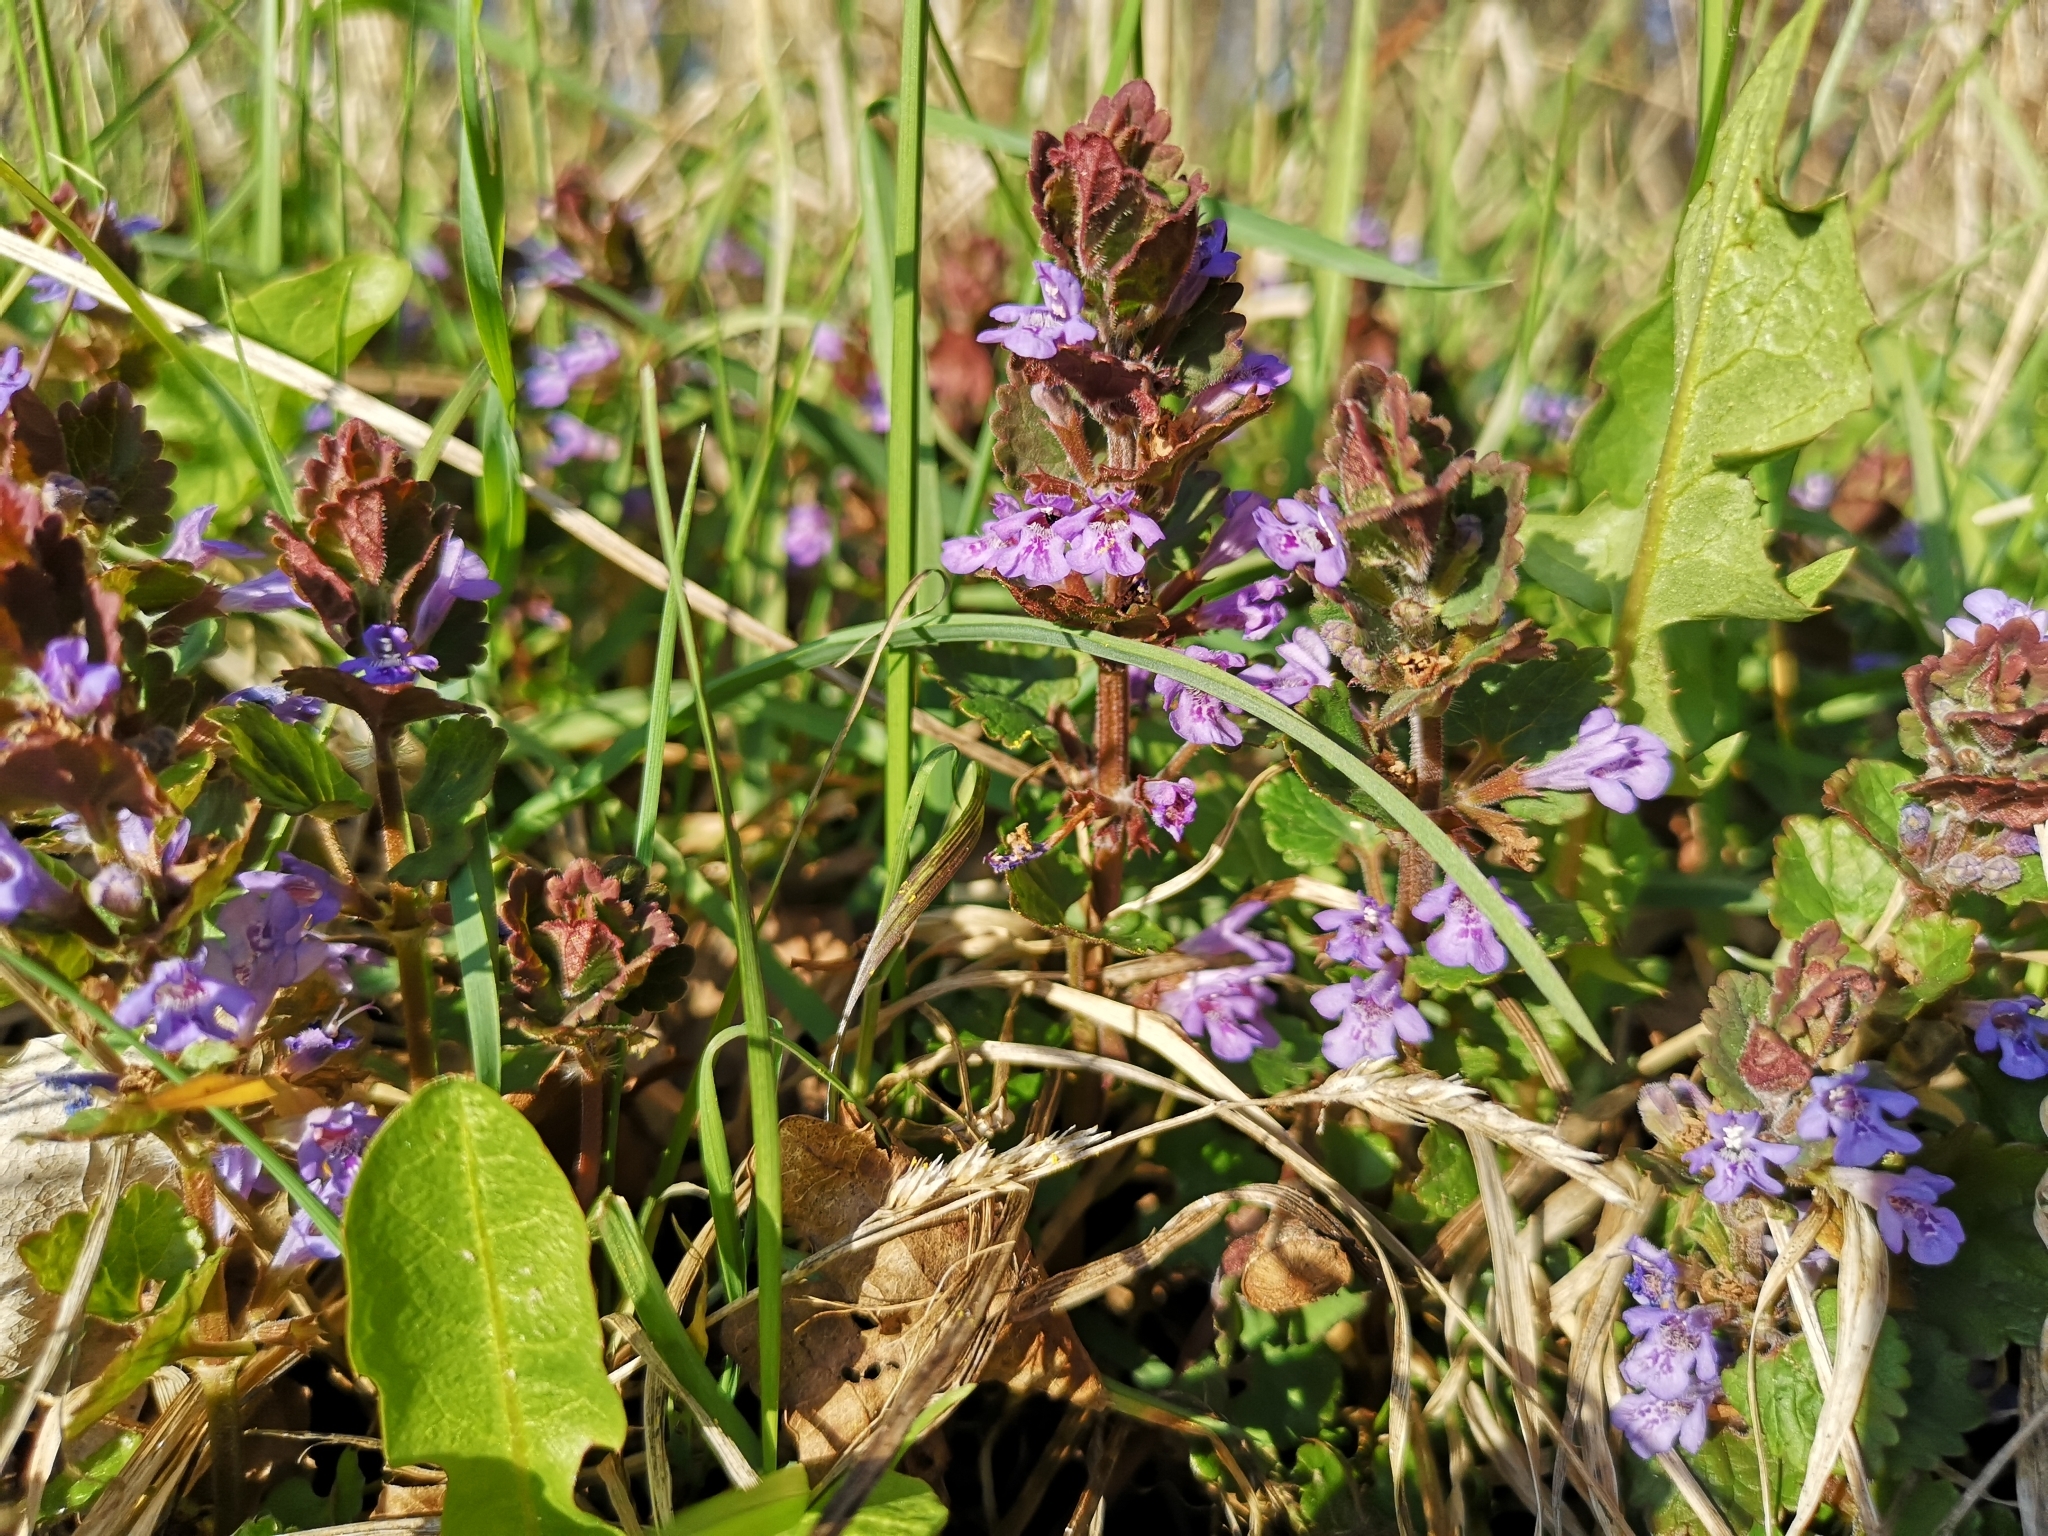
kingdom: Plantae
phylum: Tracheophyta
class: Magnoliopsida
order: Lamiales
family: Lamiaceae
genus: Glechoma
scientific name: Glechoma hederacea
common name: Ground ivy
